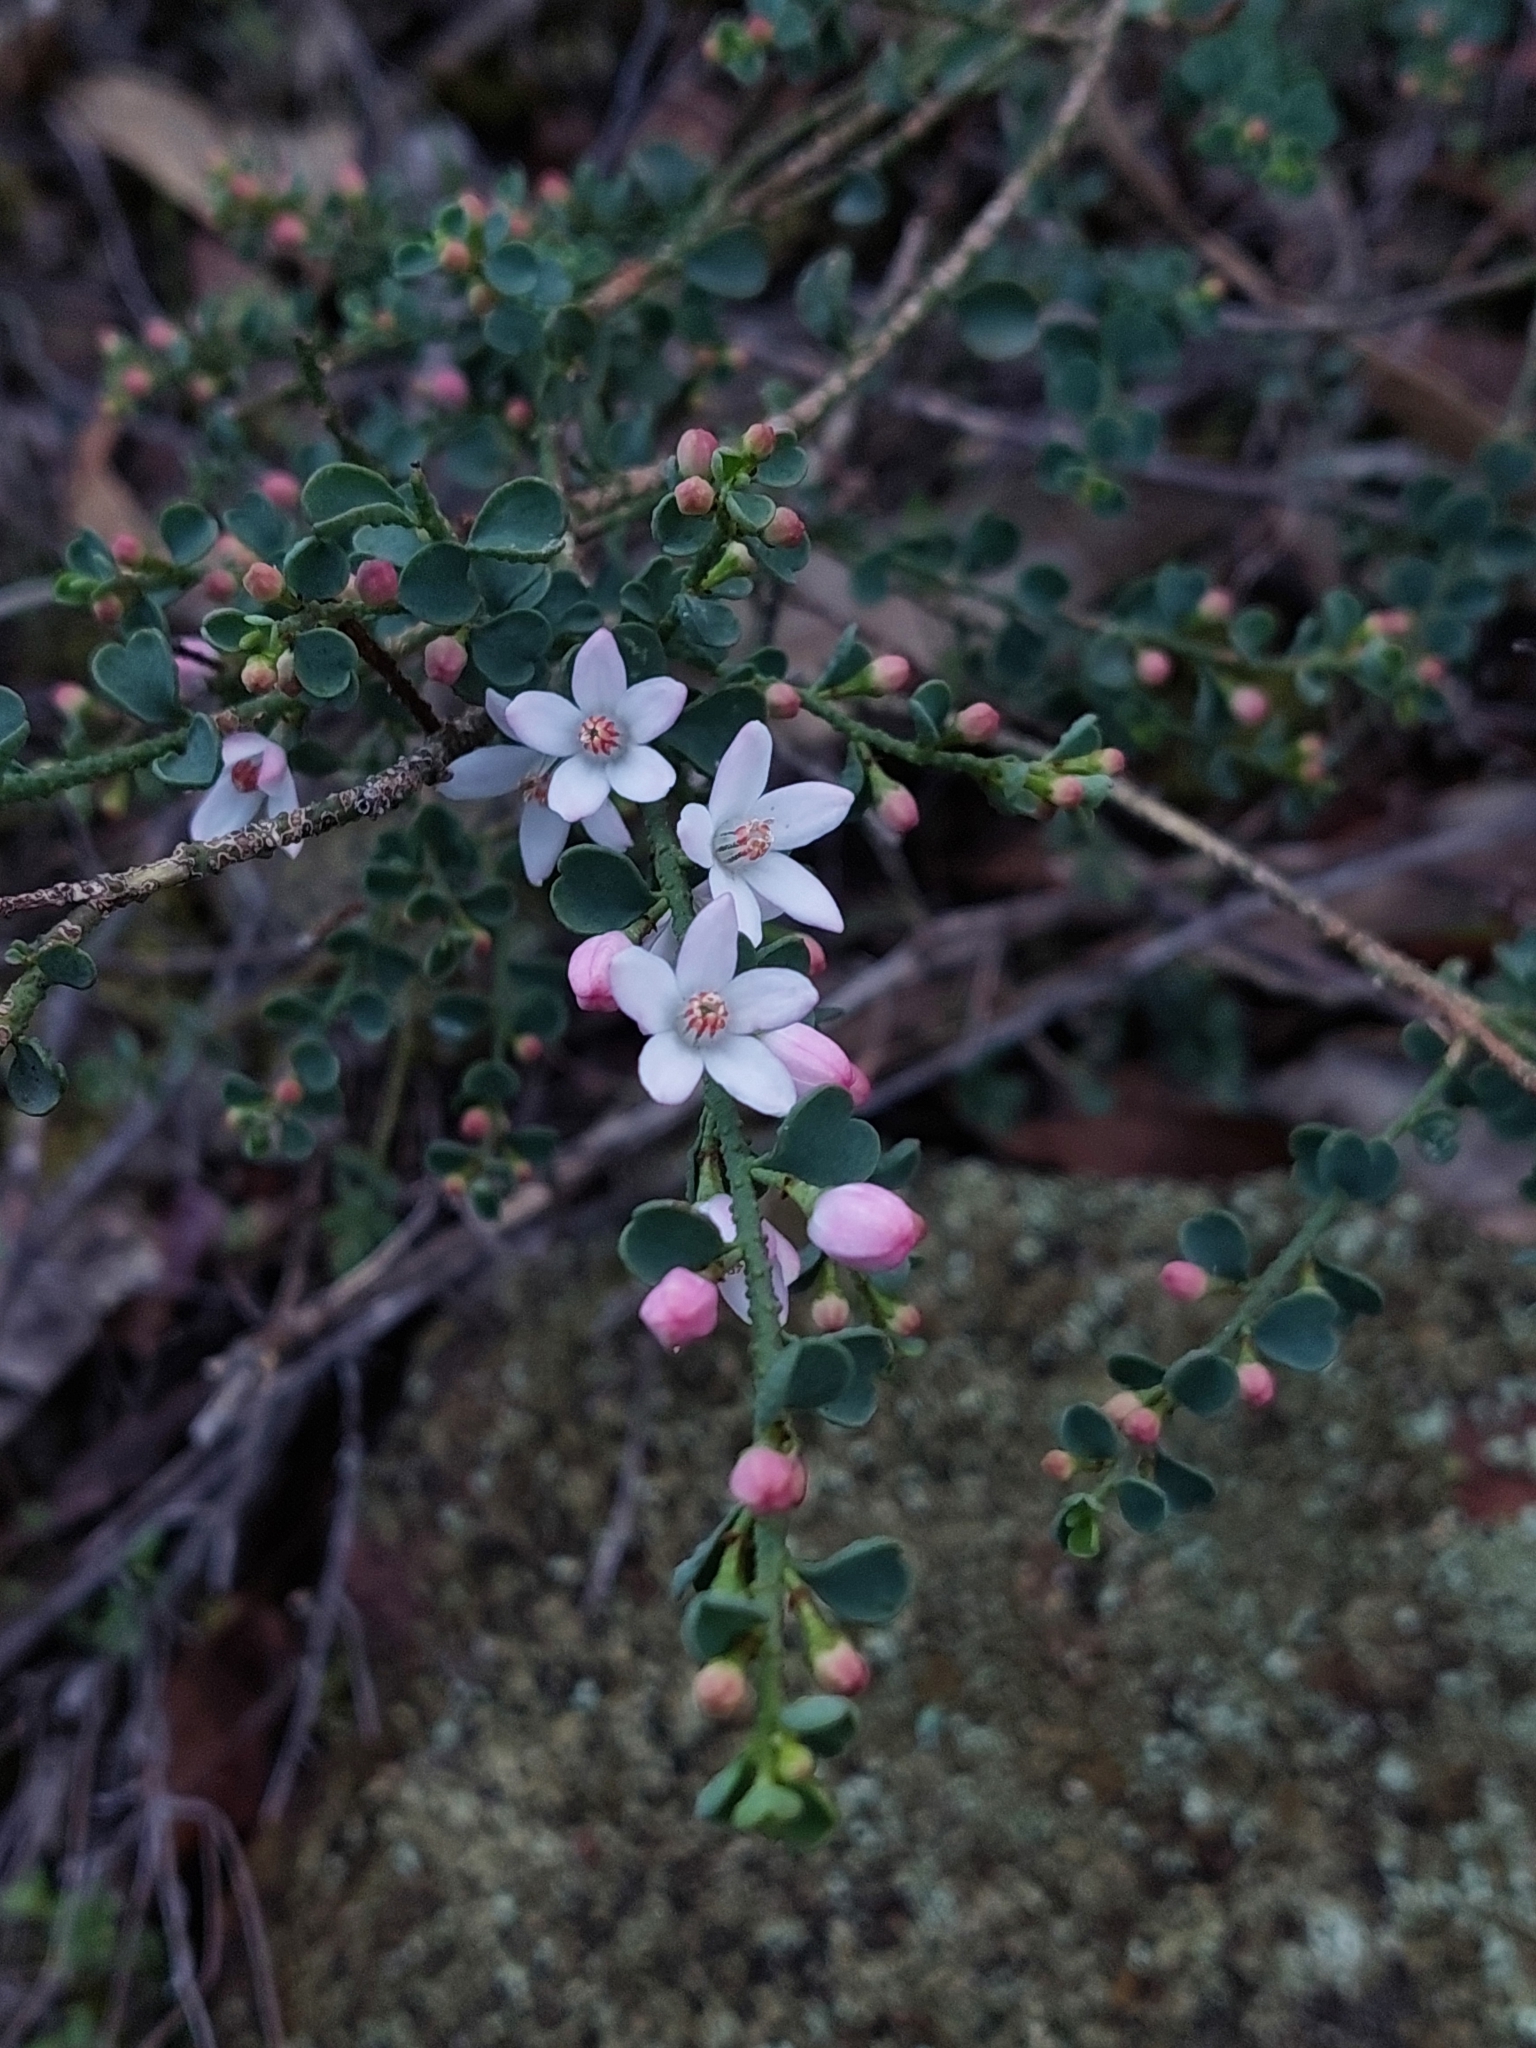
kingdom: Plantae
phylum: Tracheophyta
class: Magnoliopsida
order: Sapindales
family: Rutaceae
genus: Philotheca
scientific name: Philotheca verrucosa
